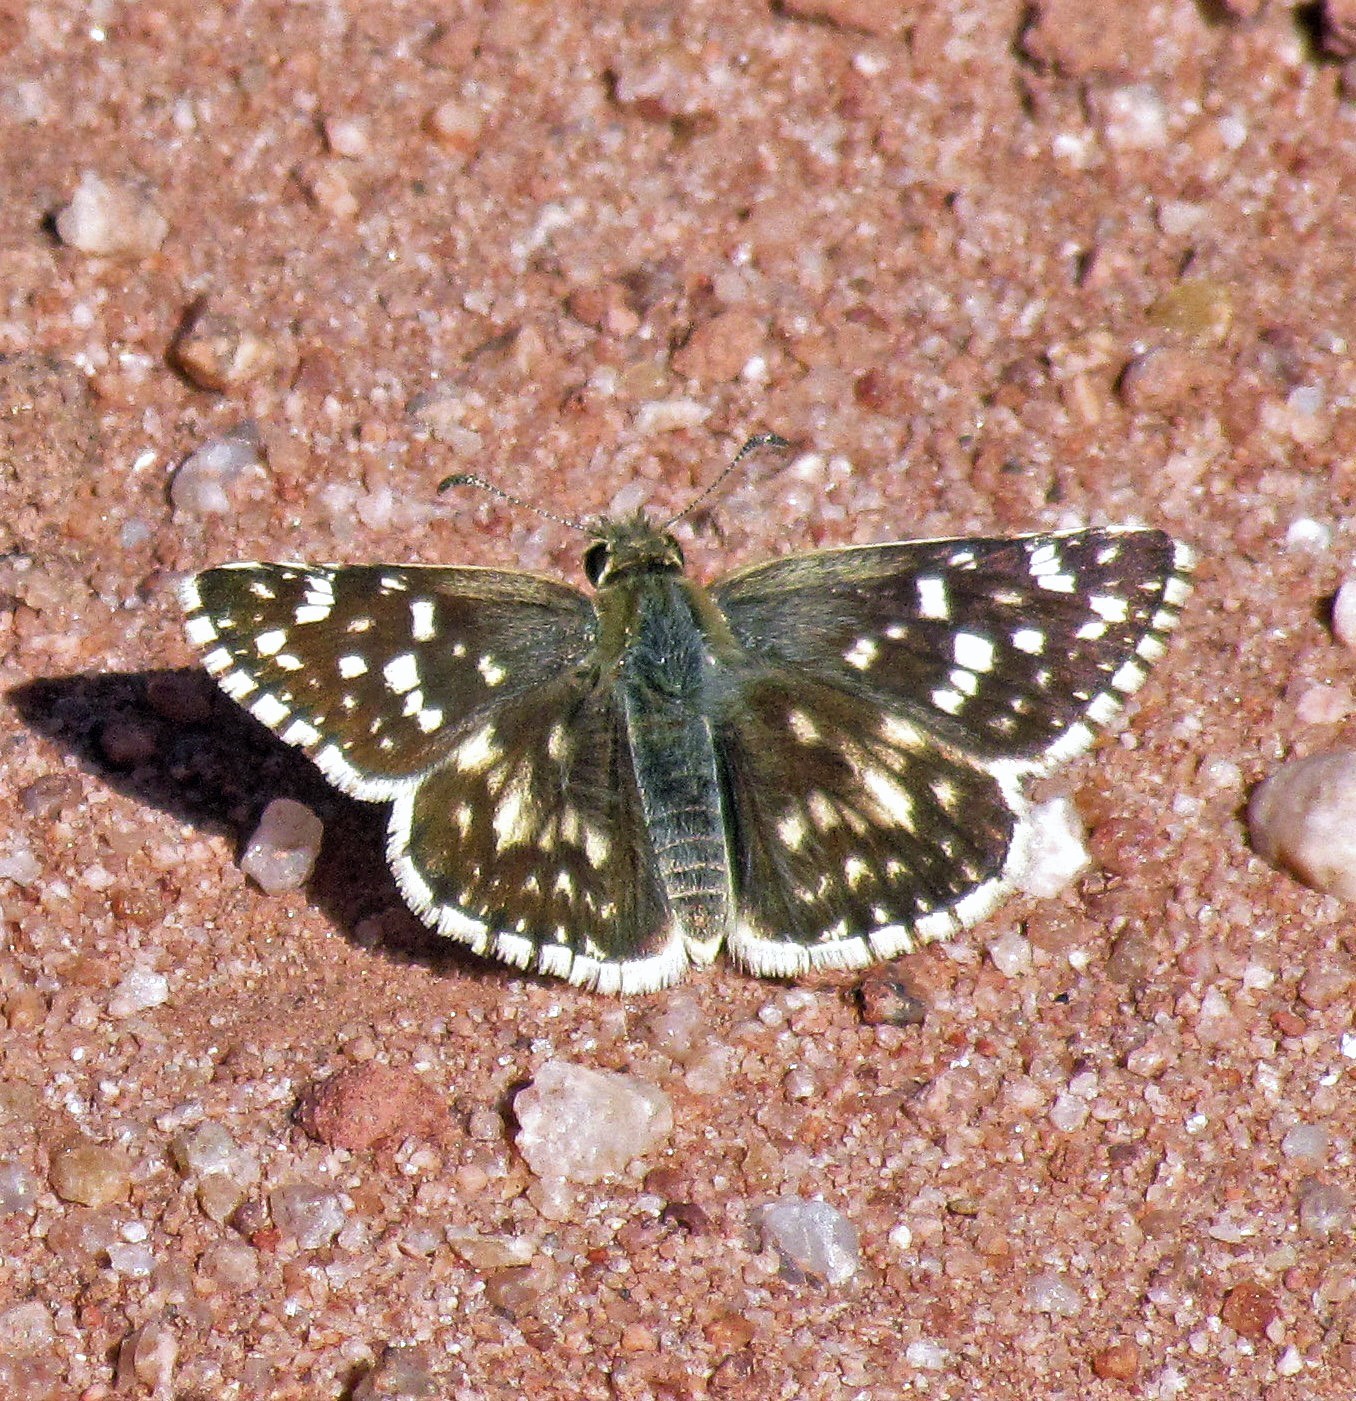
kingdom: Animalia
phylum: Arthropoda
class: Insecta
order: Lepidoptera
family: Hesperiidae
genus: Heliopetes
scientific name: Heliopetes americanus
